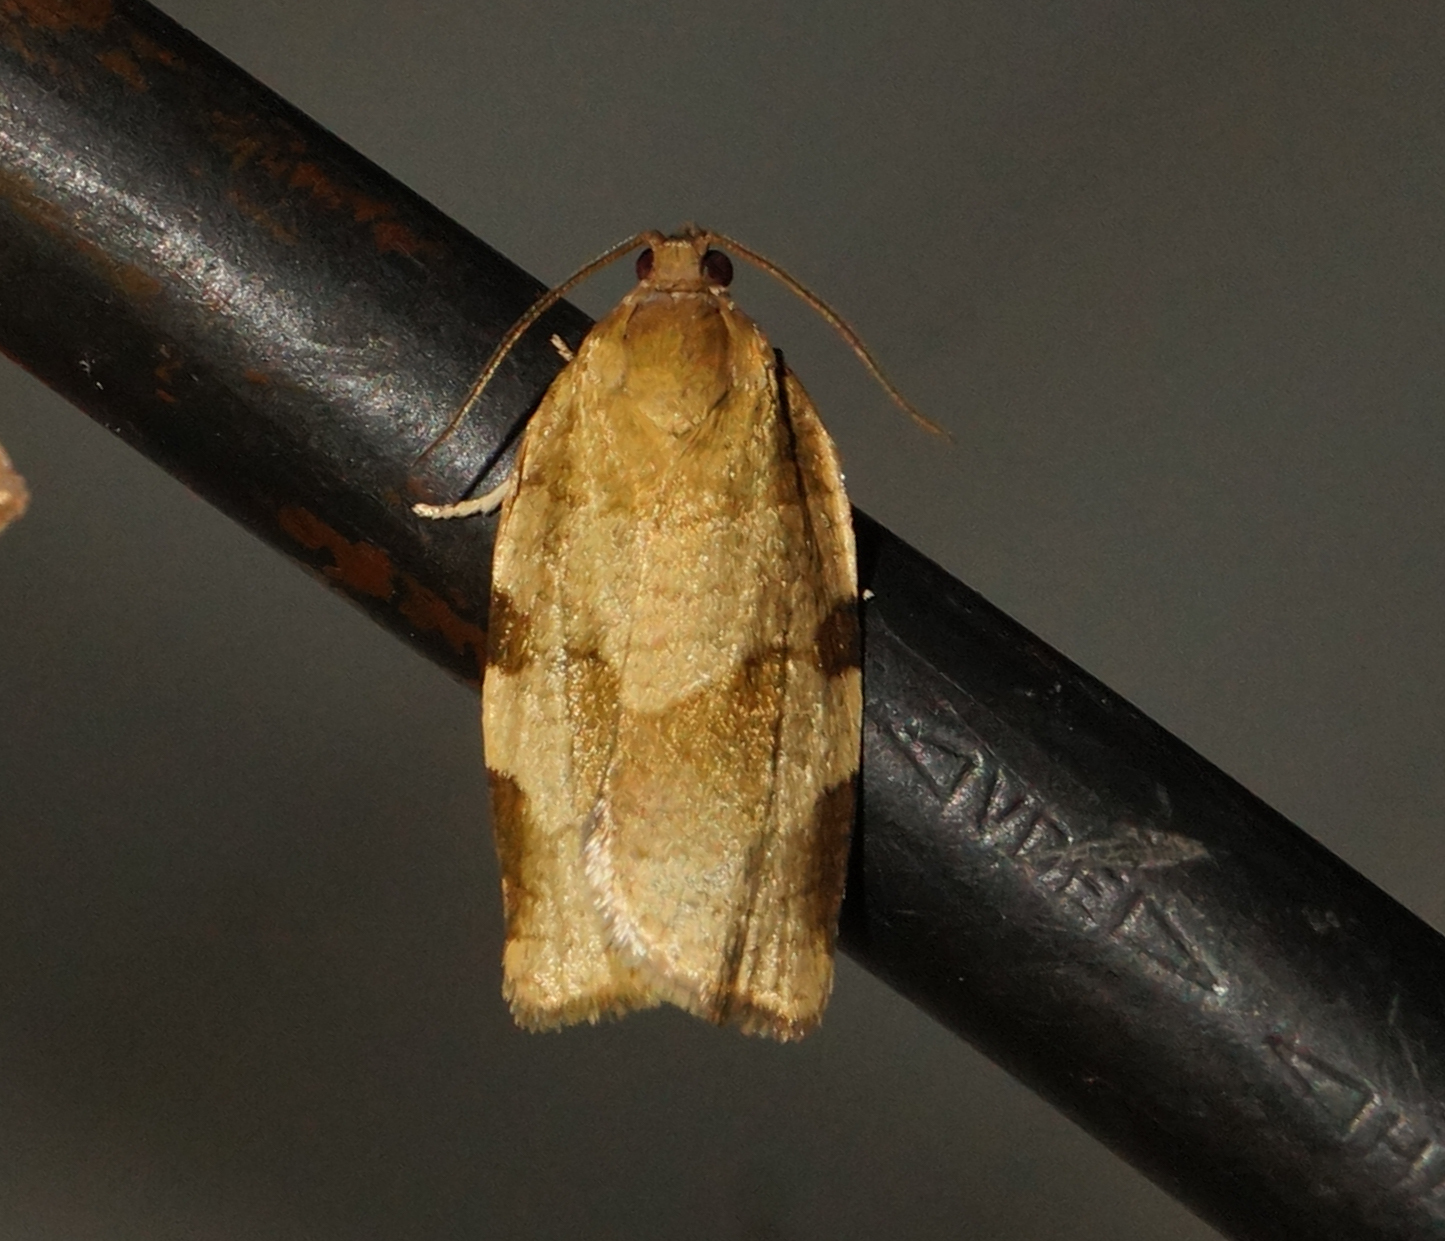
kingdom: Animalia
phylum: Arthropoda
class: Insecta
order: Lepidoptera
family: Tortricidae
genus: Choristoneura
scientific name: Choristoneura hebenstreitella
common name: Great twist
